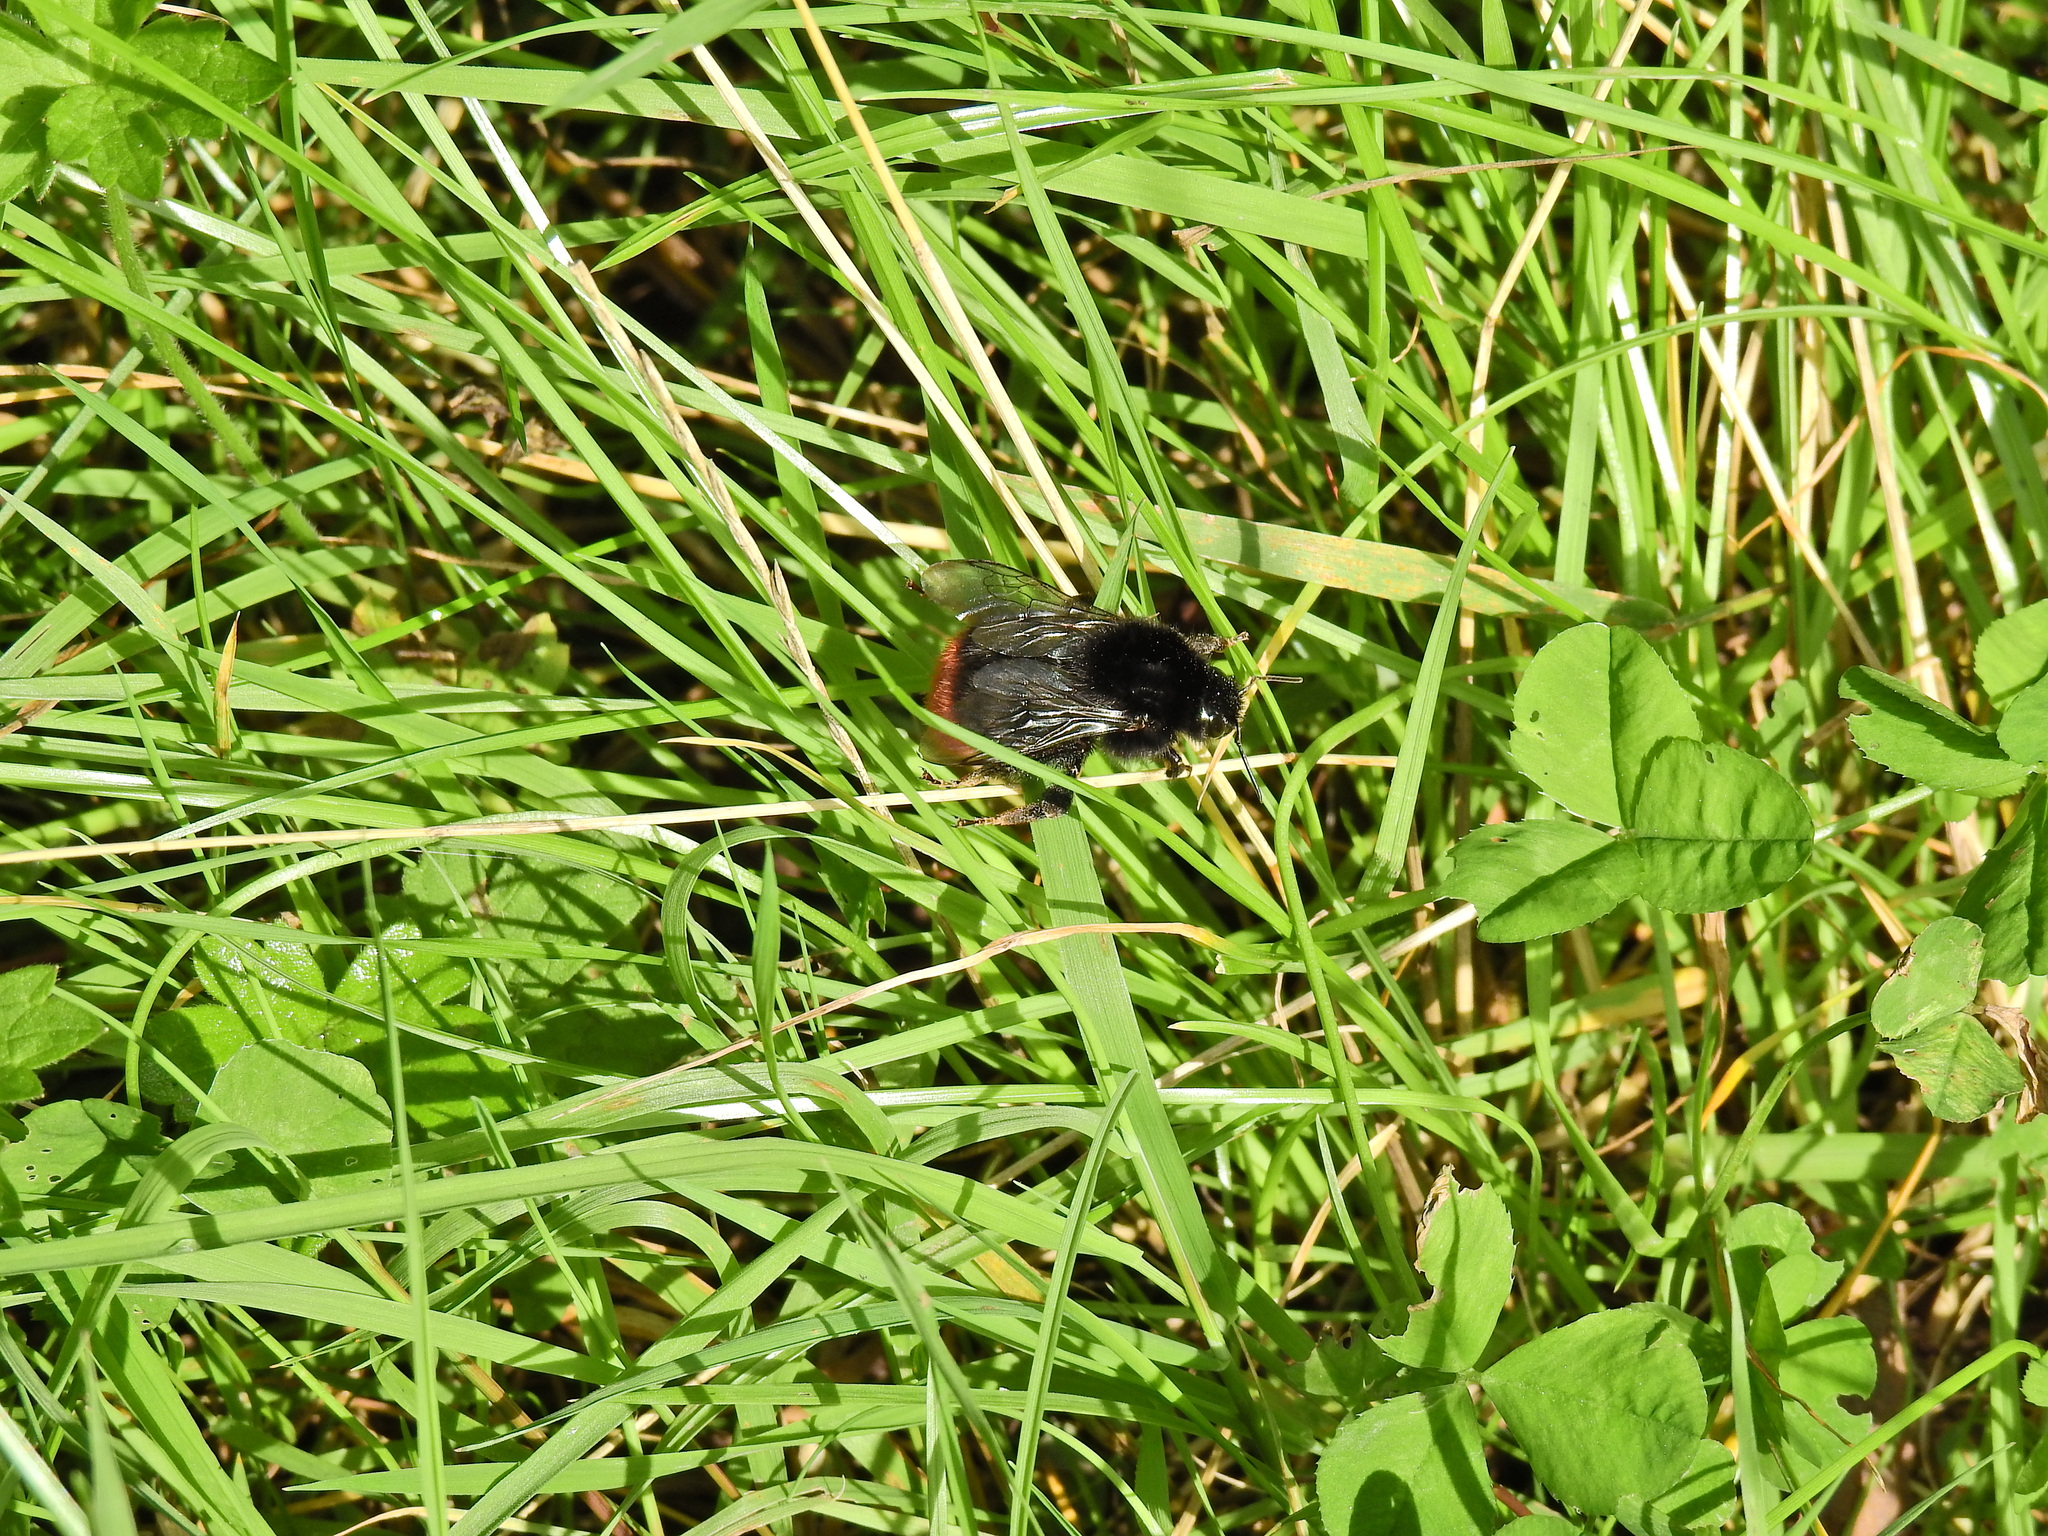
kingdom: Animalia
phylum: Arthropoda
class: Insecta
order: Hymenoptera
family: Apidae
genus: Bombus
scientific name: Bombus lapidarius
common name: Large red-tailed humble-bee
